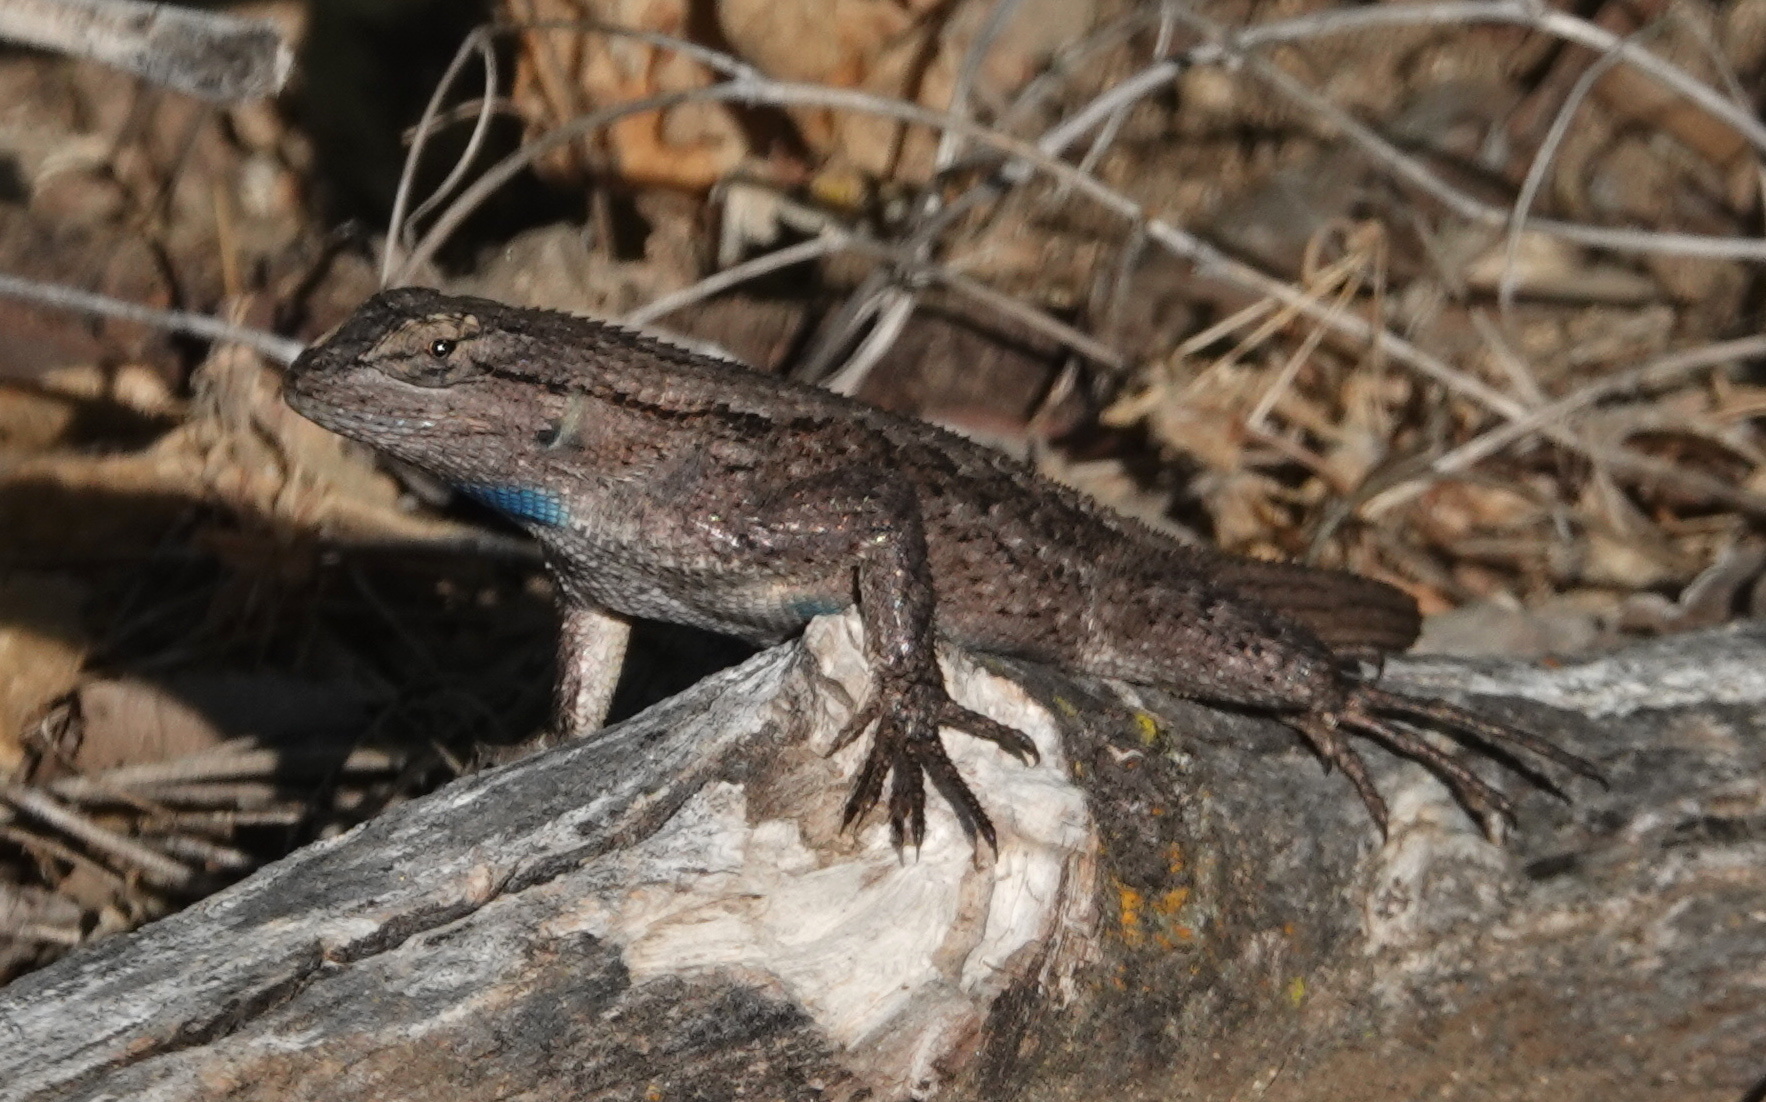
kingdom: Animalia
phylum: Chordata
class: Squamata
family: Phrynosomatidae
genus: Sceloporus
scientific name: Sceloporus occidentalis
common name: Western fence lizard
